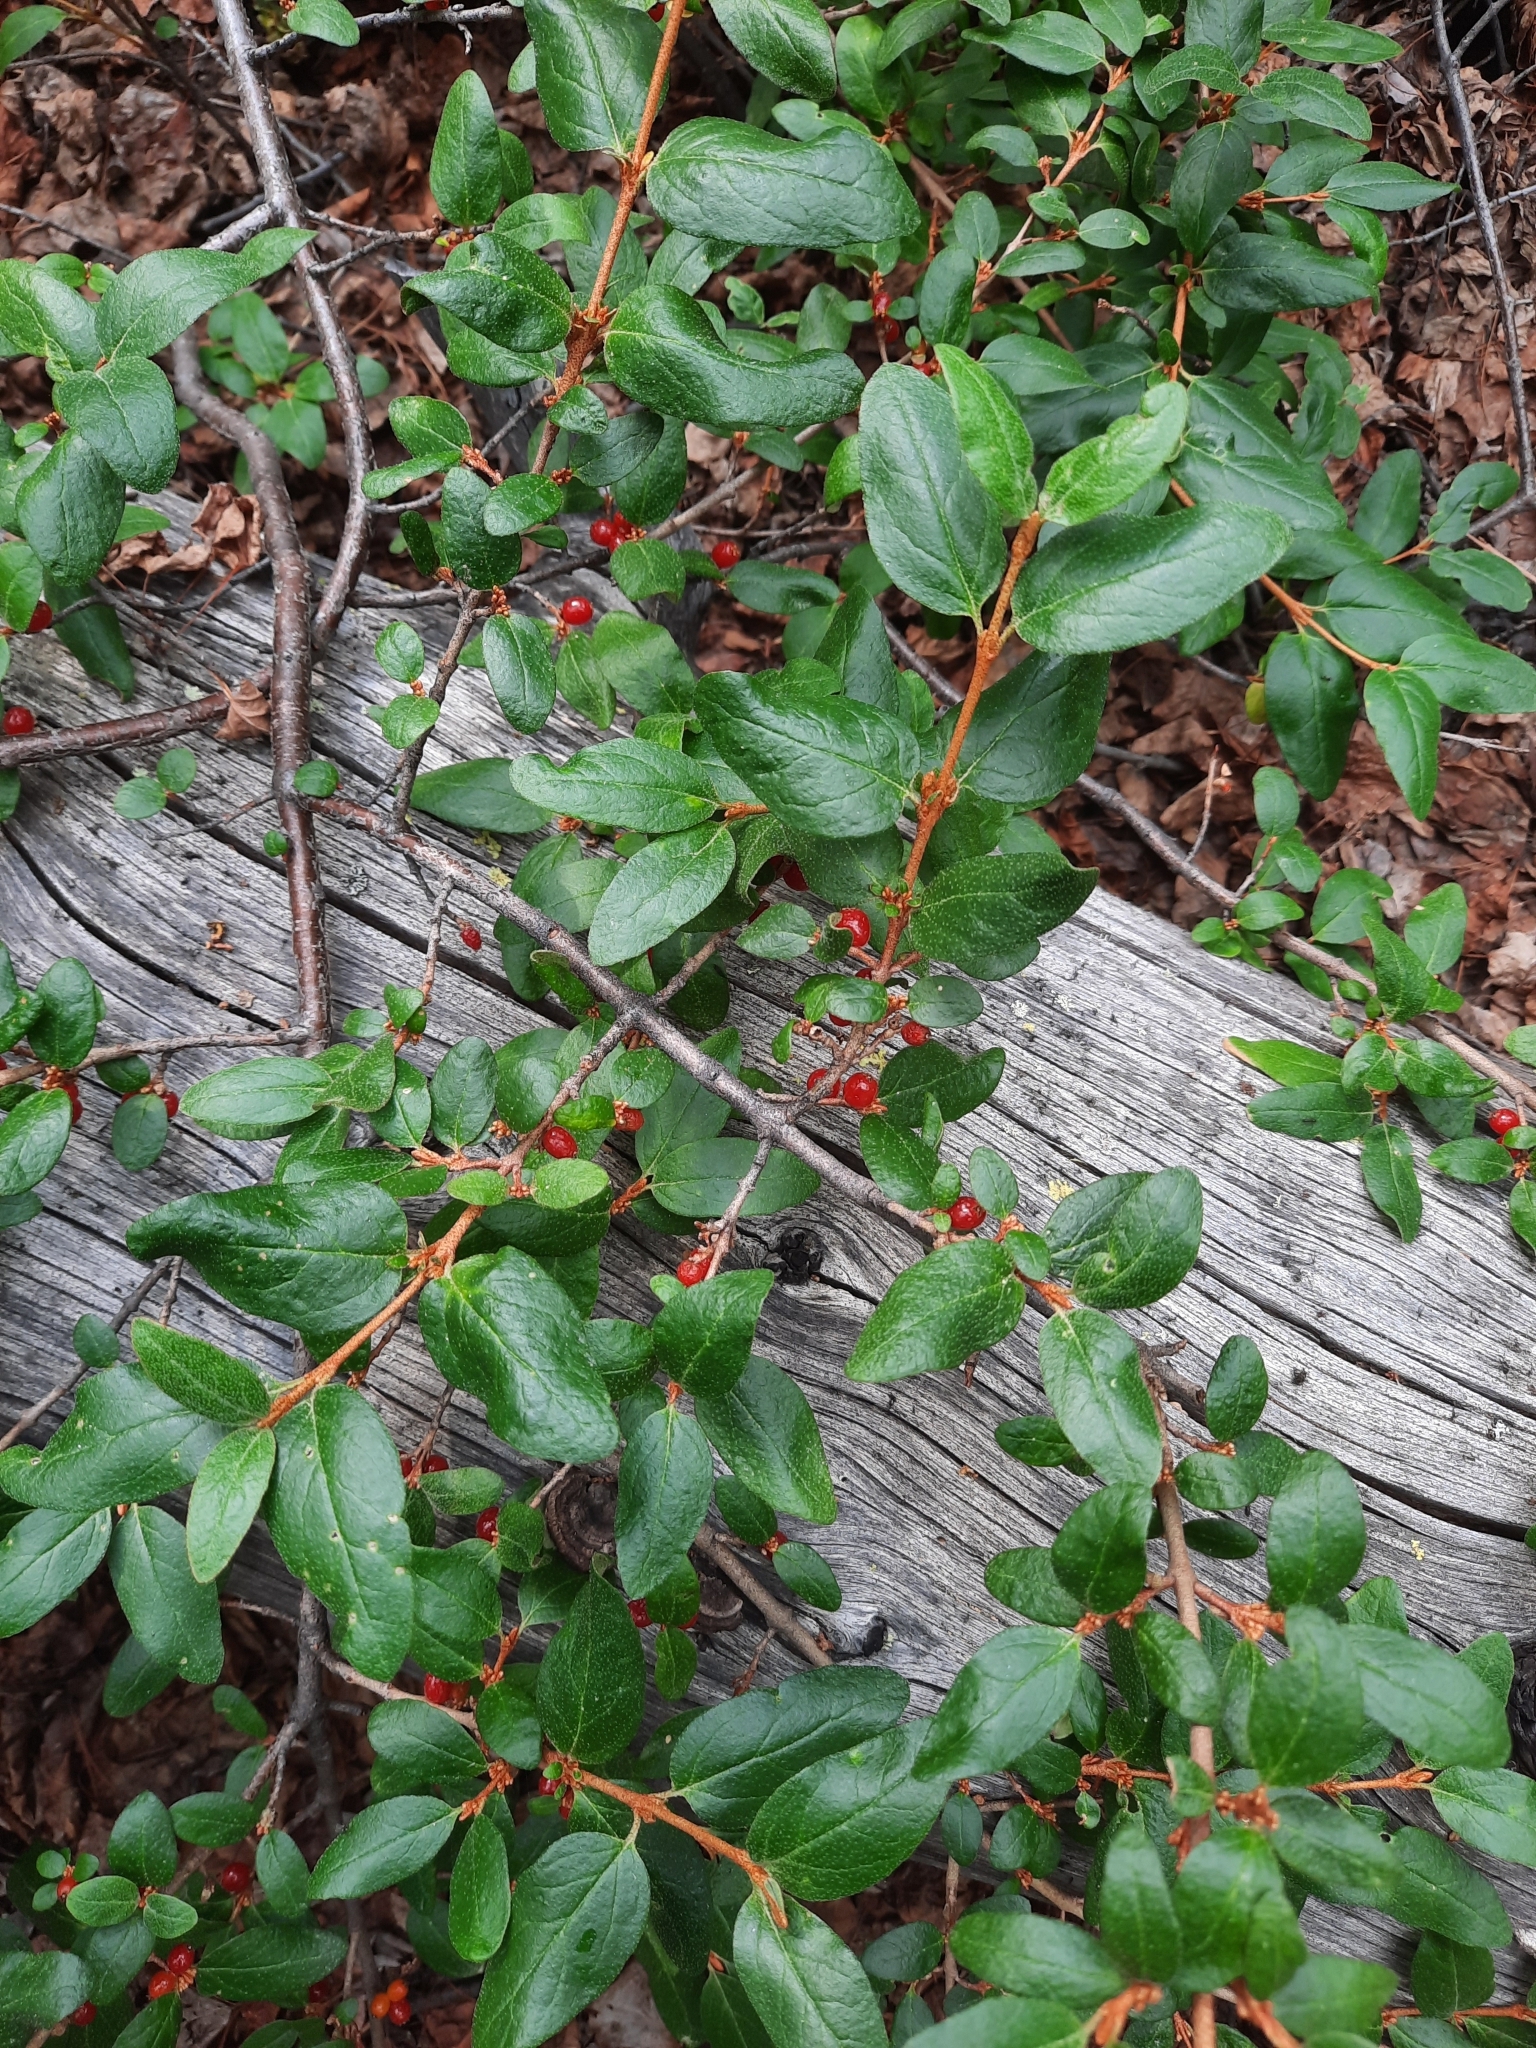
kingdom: Plantae
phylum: Tracheophyta
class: Magnoliopsida
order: Rosales
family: Elaeagnaceae
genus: Shepherdia
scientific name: Shepherdia canadensis
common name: Soapberry
